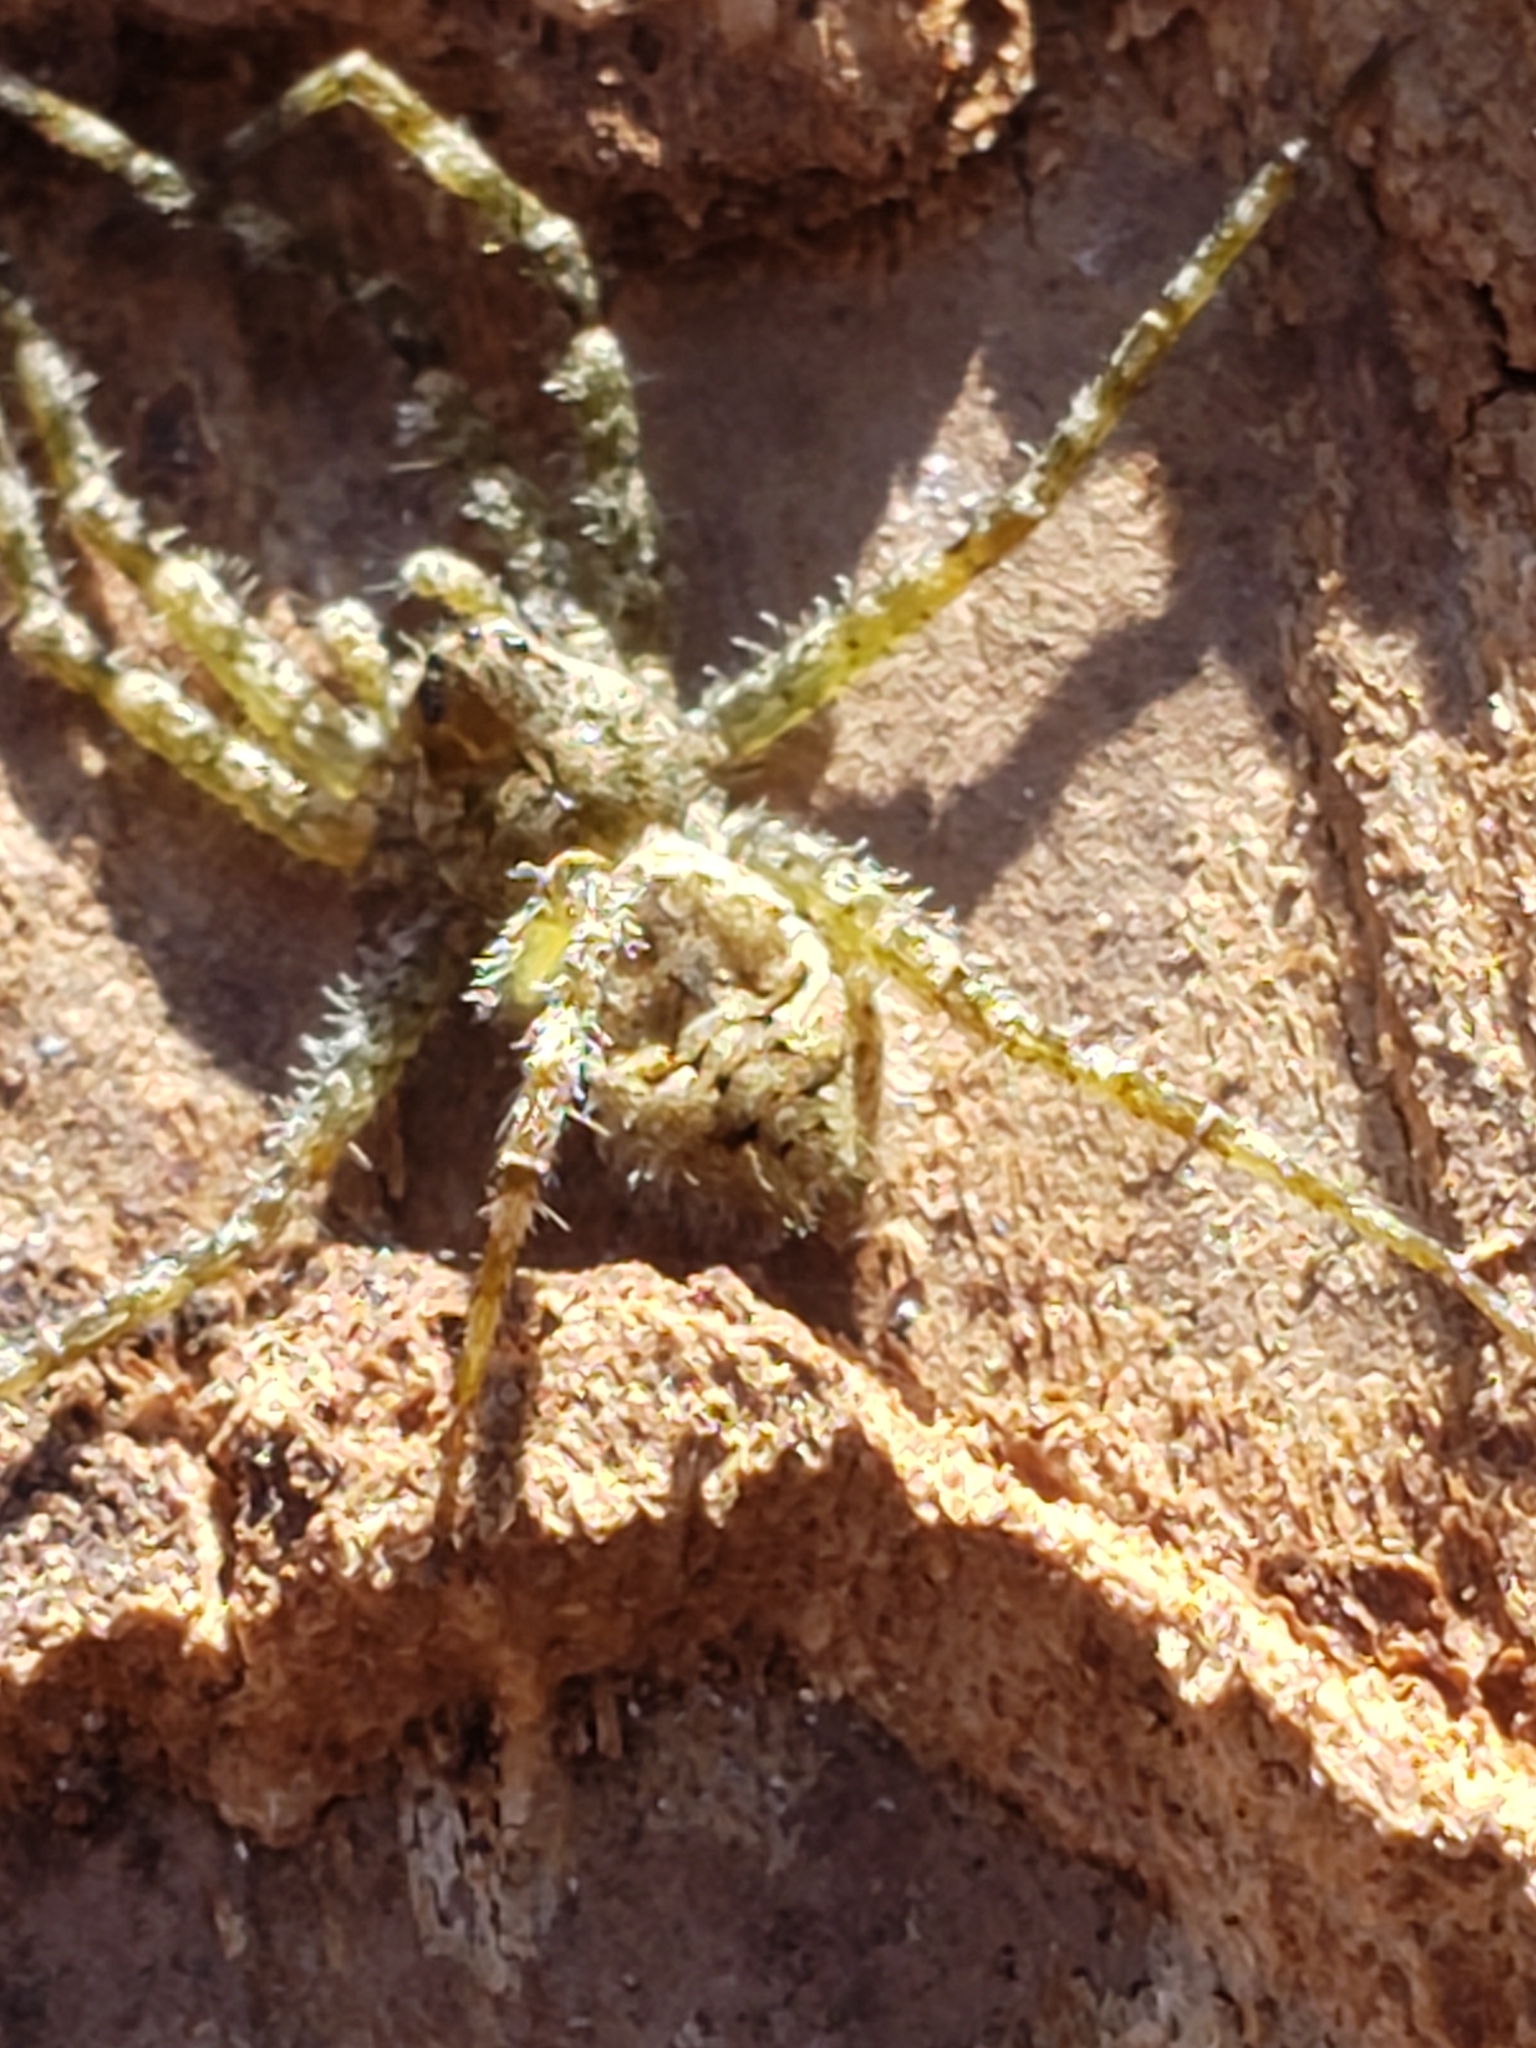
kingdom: Animalia
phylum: Arthropoda
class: Arachnida
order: Araneae
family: Pisauridae
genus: Dolomedes
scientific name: Dolomedes albineus
